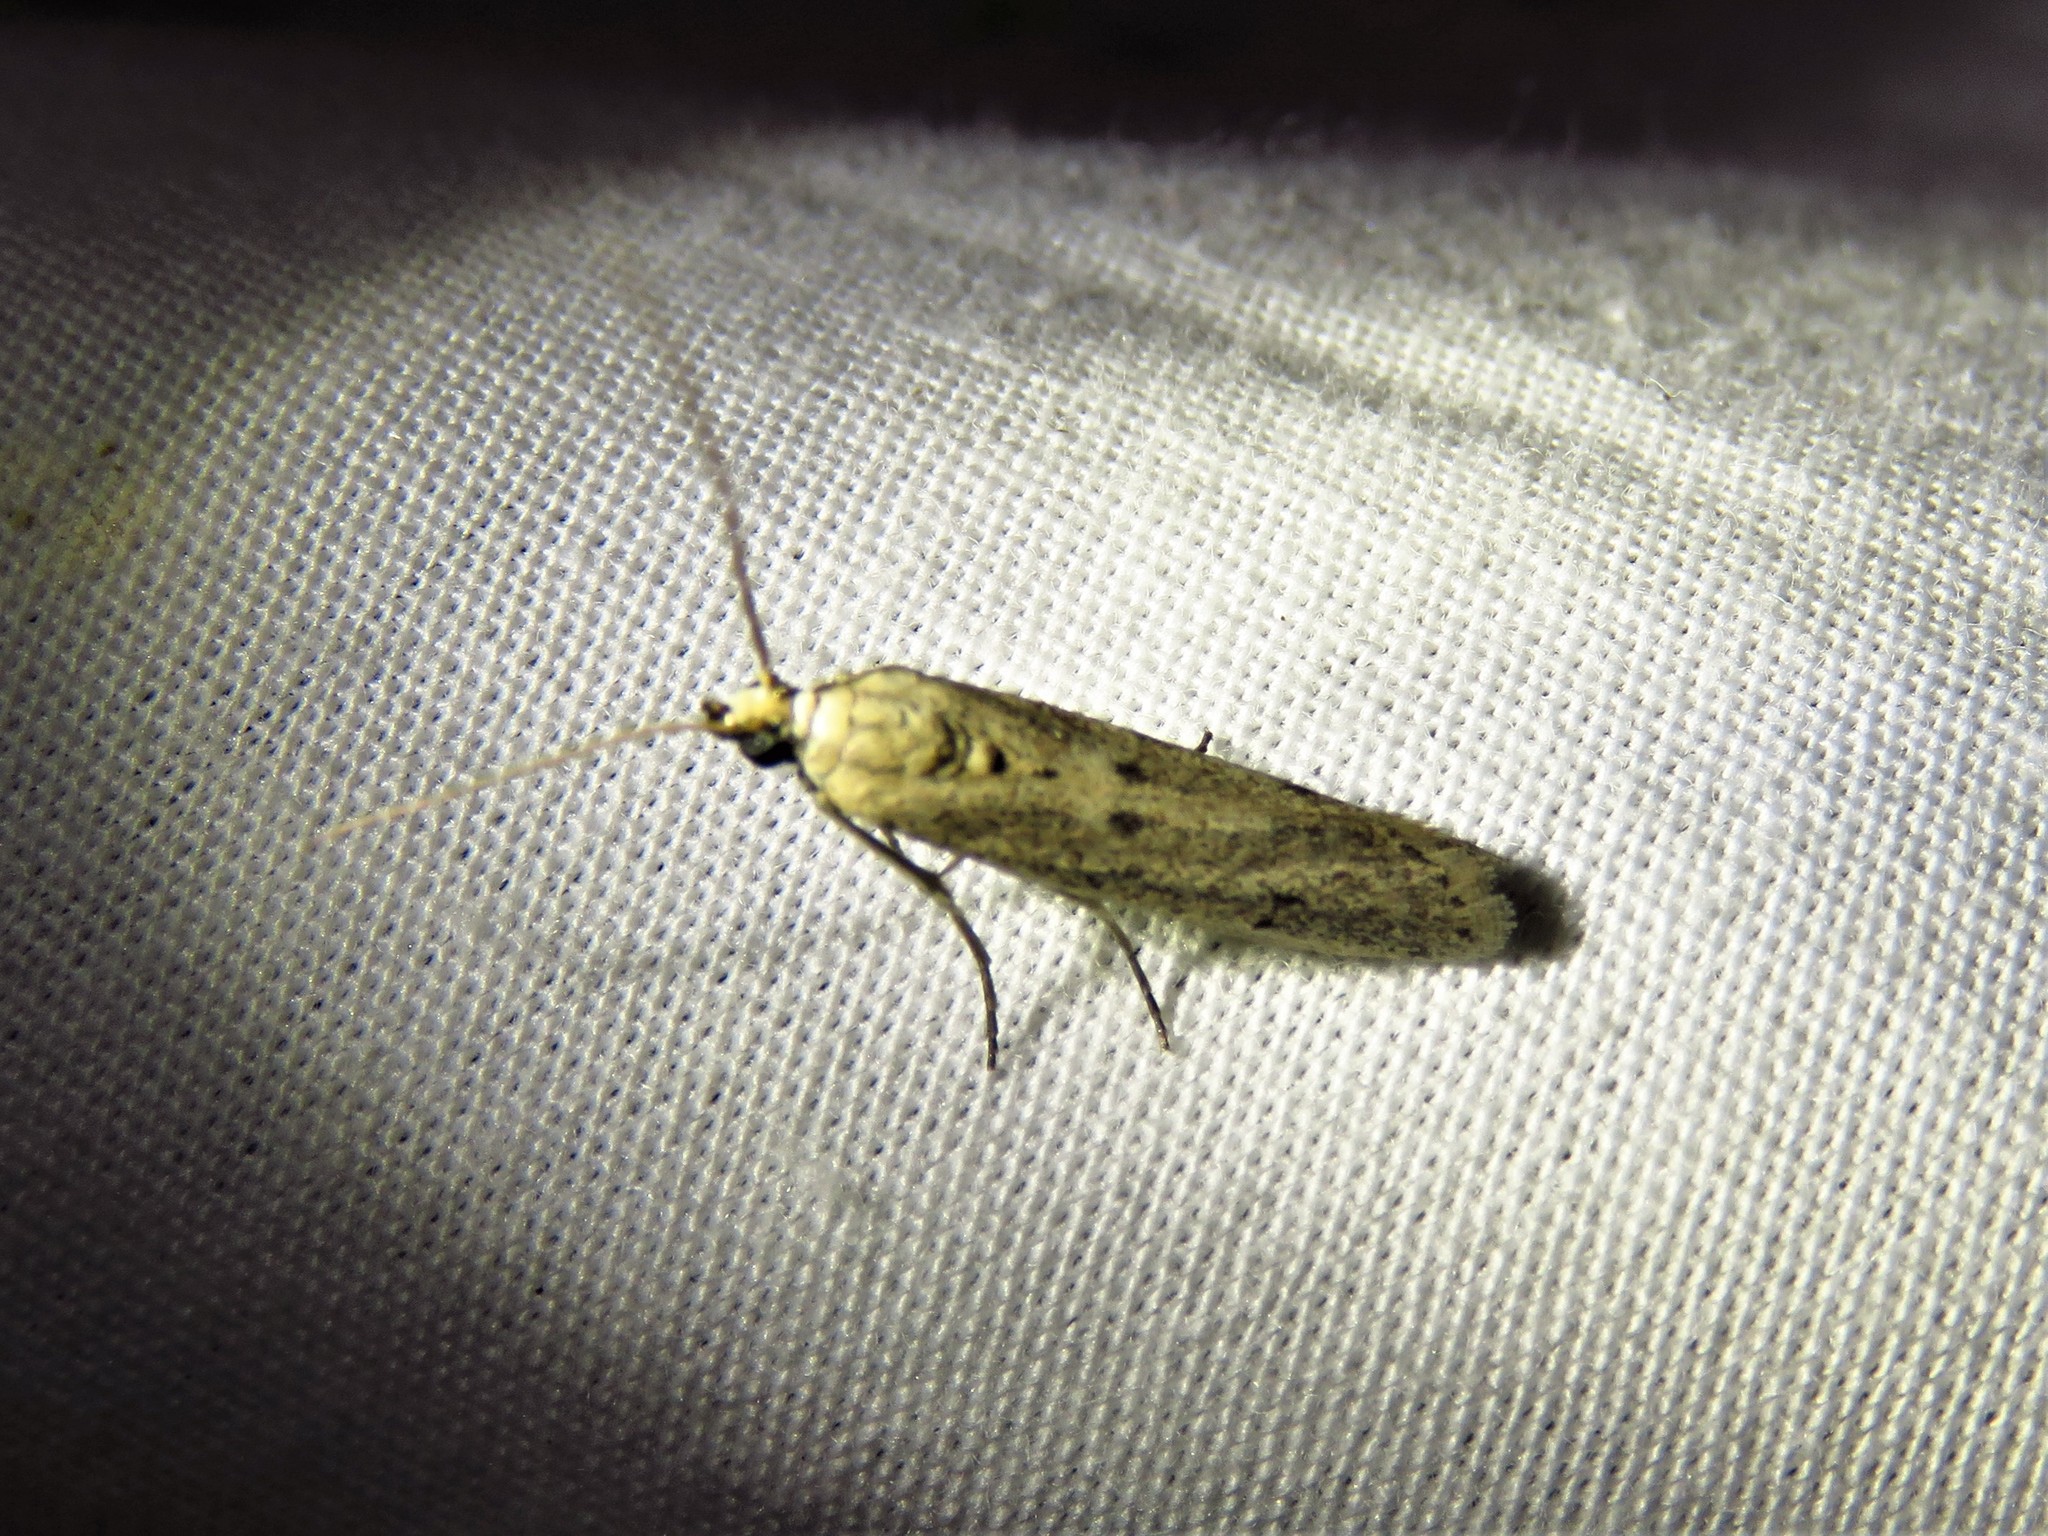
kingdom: Animalia
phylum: Arthropoda
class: Insecta
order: Lepidoptera
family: Pyralidae
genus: Homoeosoma
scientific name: Homoeosoma electella
